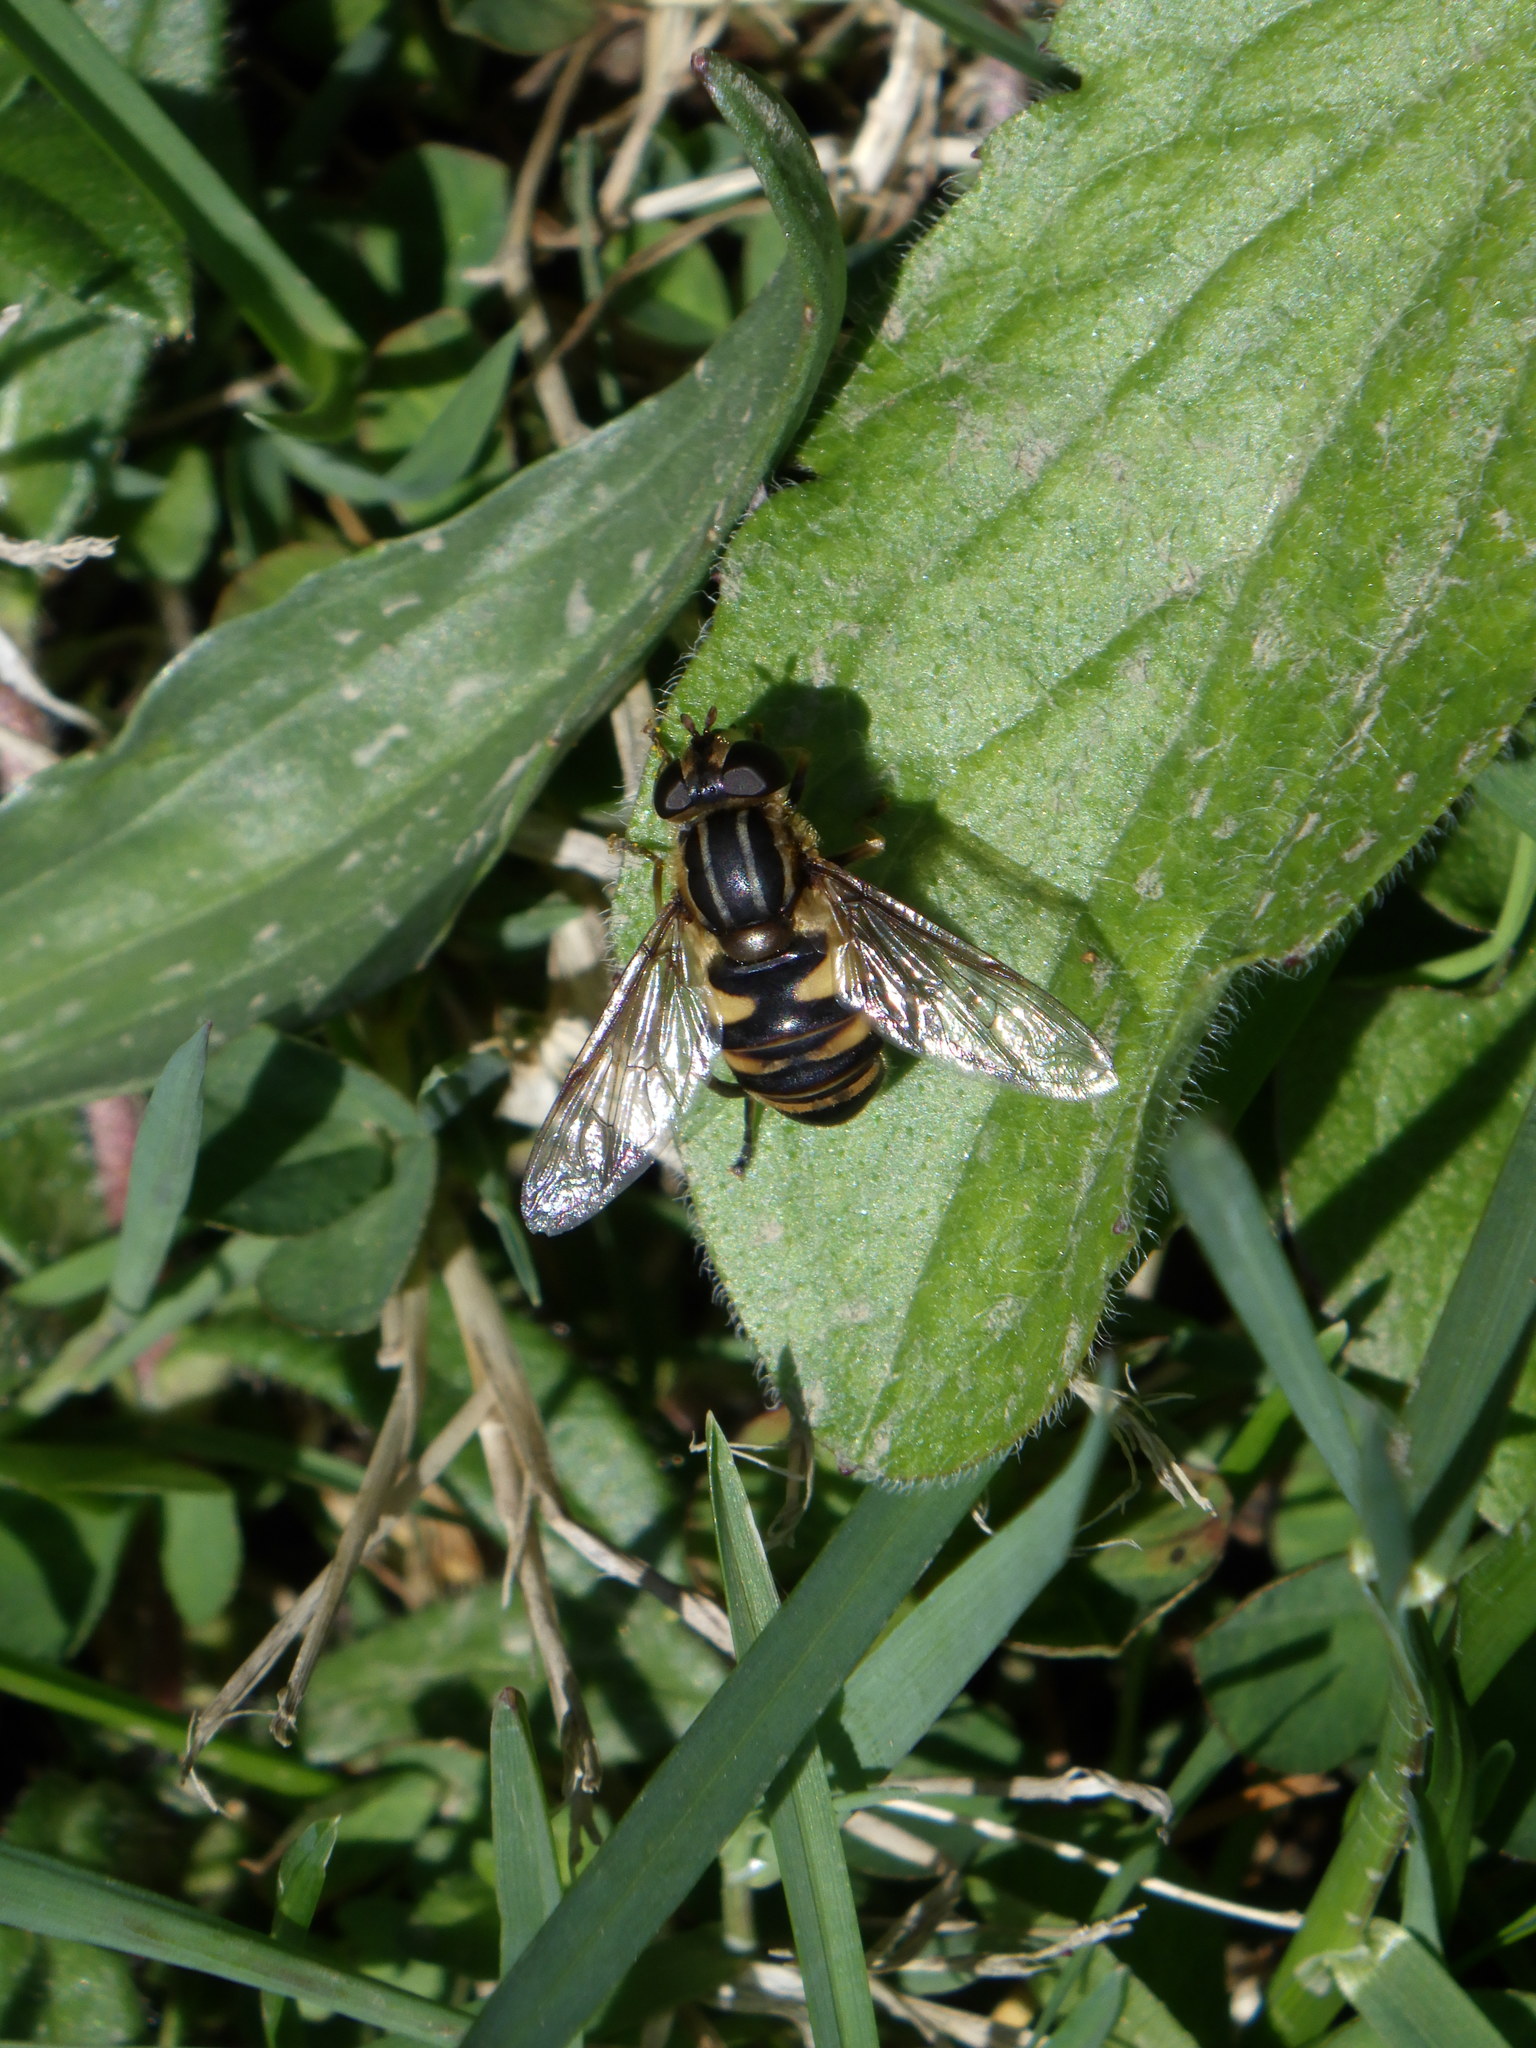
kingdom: Animalia
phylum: Arthropoda
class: Insecta
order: Diptera
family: Syrphidae
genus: Helophilus
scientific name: Helophilus fasciatus
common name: Narrow-headed marsh fly
